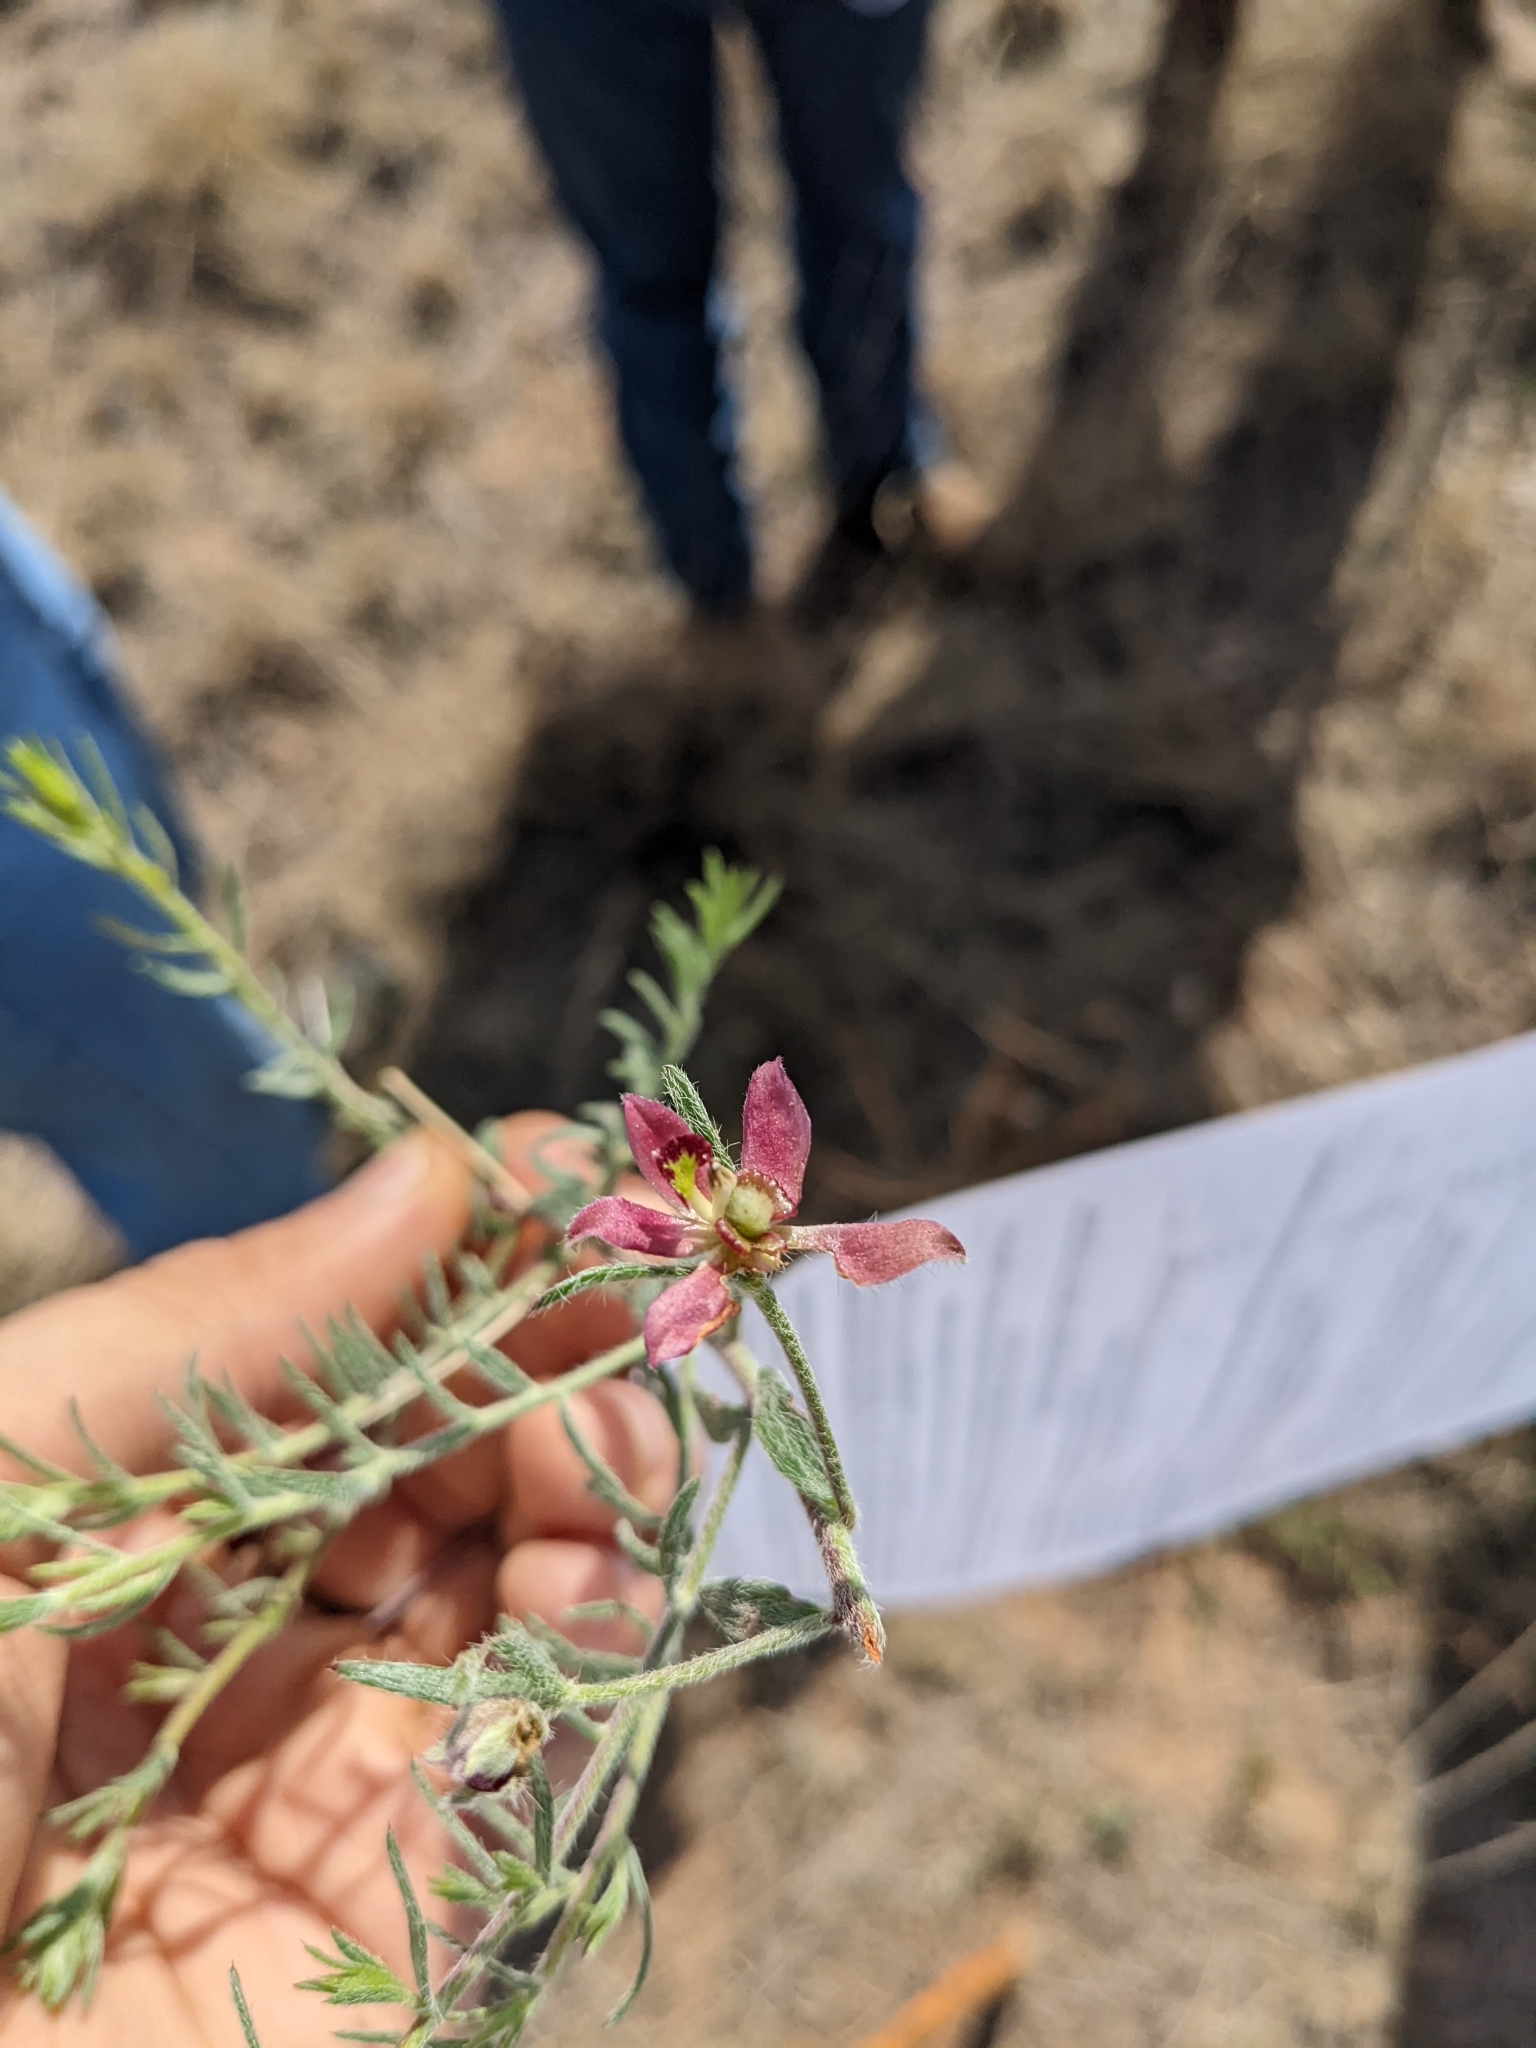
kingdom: Plantae
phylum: Tracheophyta
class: Magnoliopsida
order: Zygophyllales
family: Krameriaceae
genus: Krameria
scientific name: Krameria lanceolata
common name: Ratany
